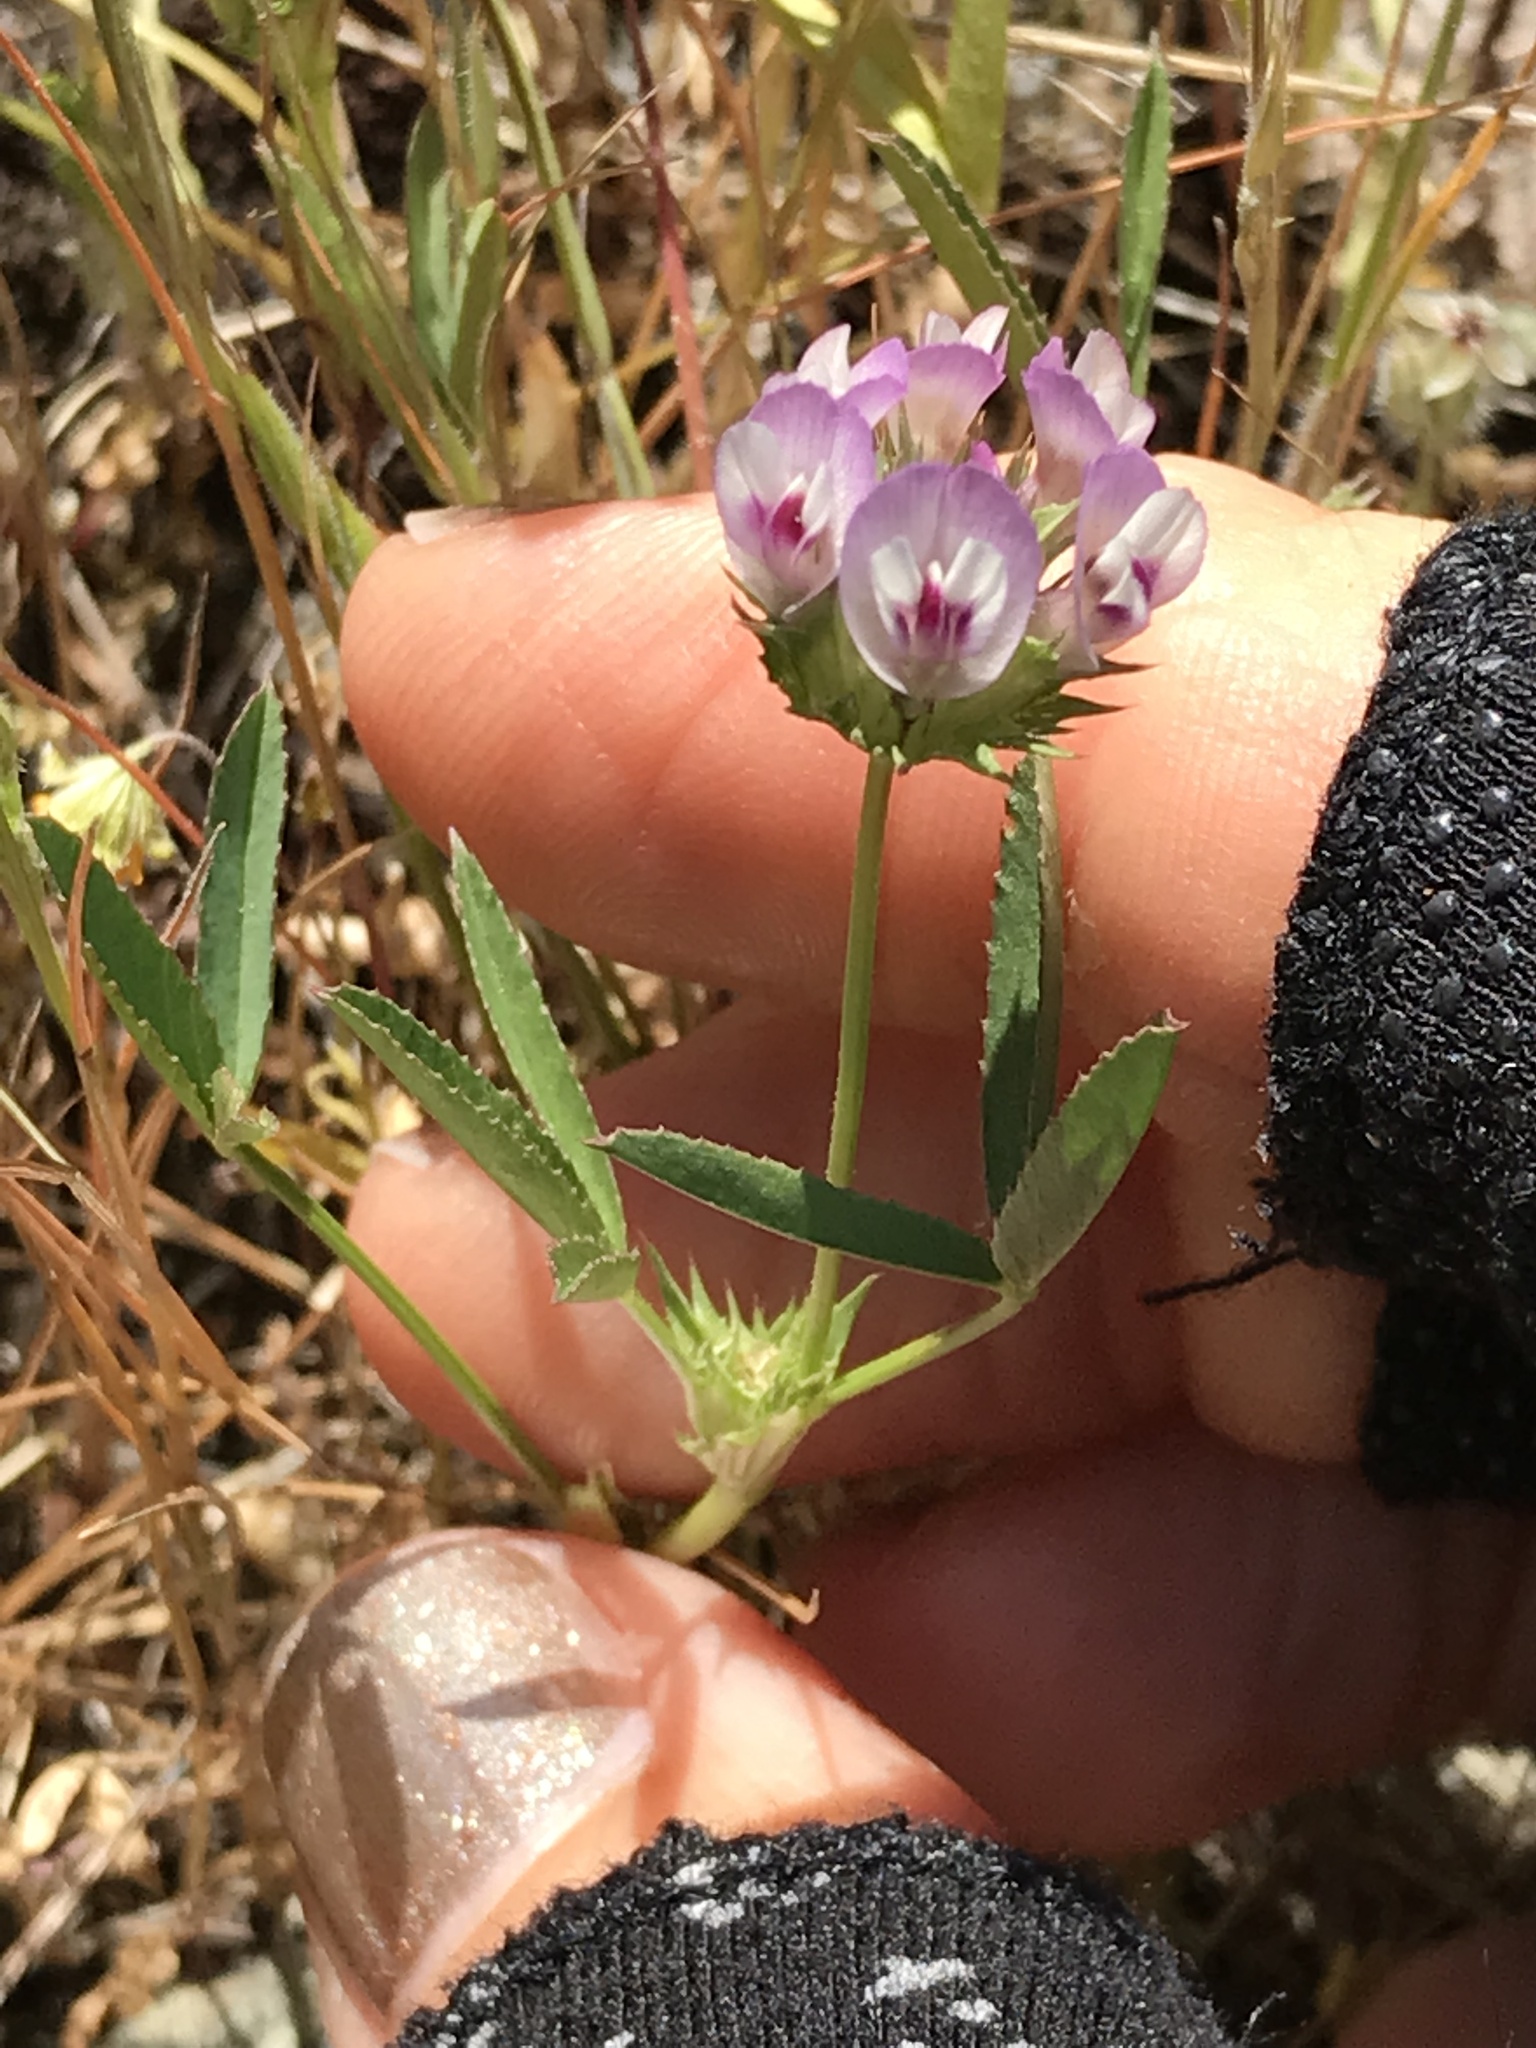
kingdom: Plantae
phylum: Tracheophyta
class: Magnoliopsida
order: Fabales
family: Fabaceae
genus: Trifolium
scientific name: Trifolium willdenovii
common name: Tomcat clover
